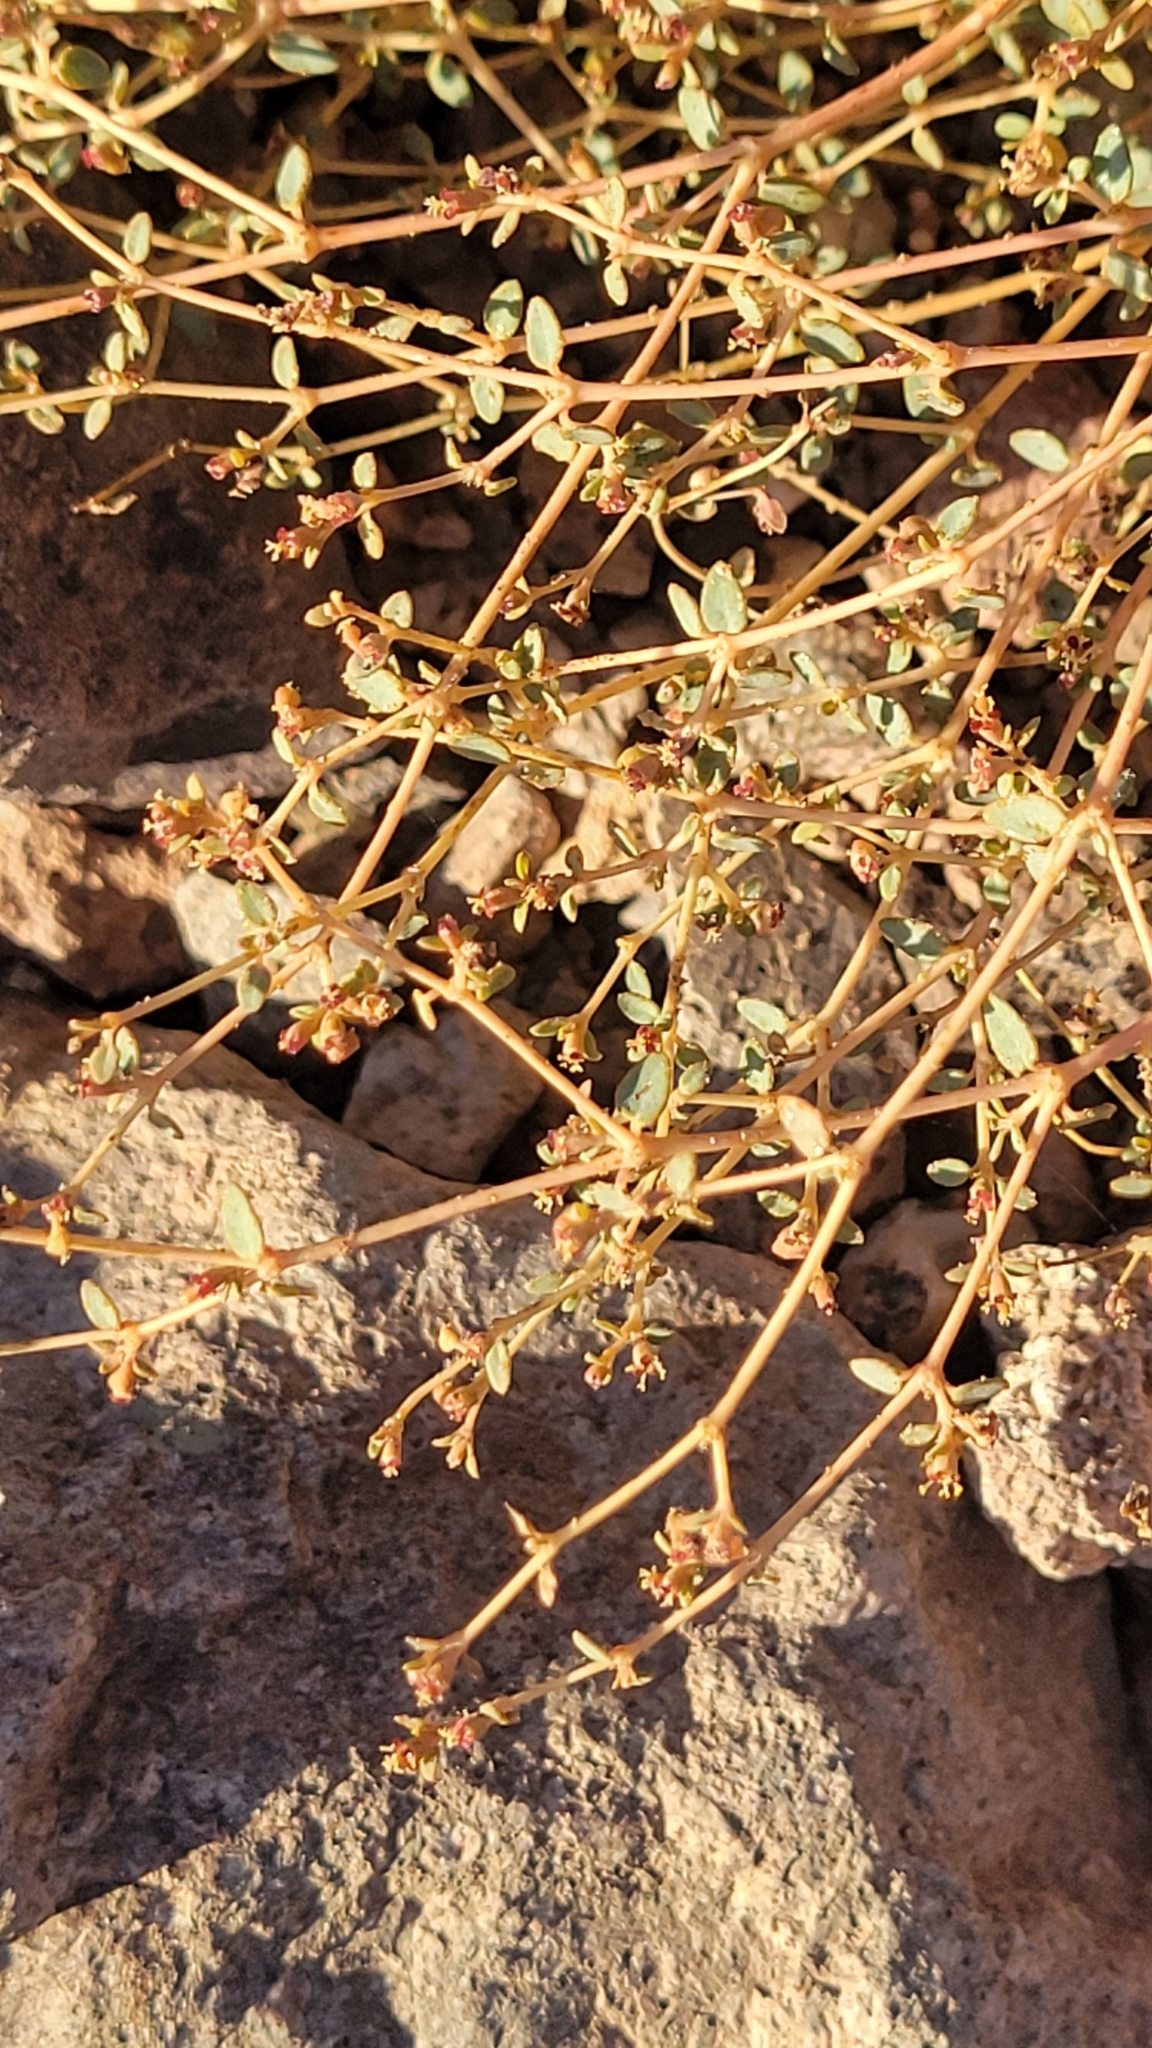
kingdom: Plantae
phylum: Tracheophyta
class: Magnoliopsida
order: Malpighiales
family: Euphorbiaceae
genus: Euphorbia
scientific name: Euphorbia parishii
